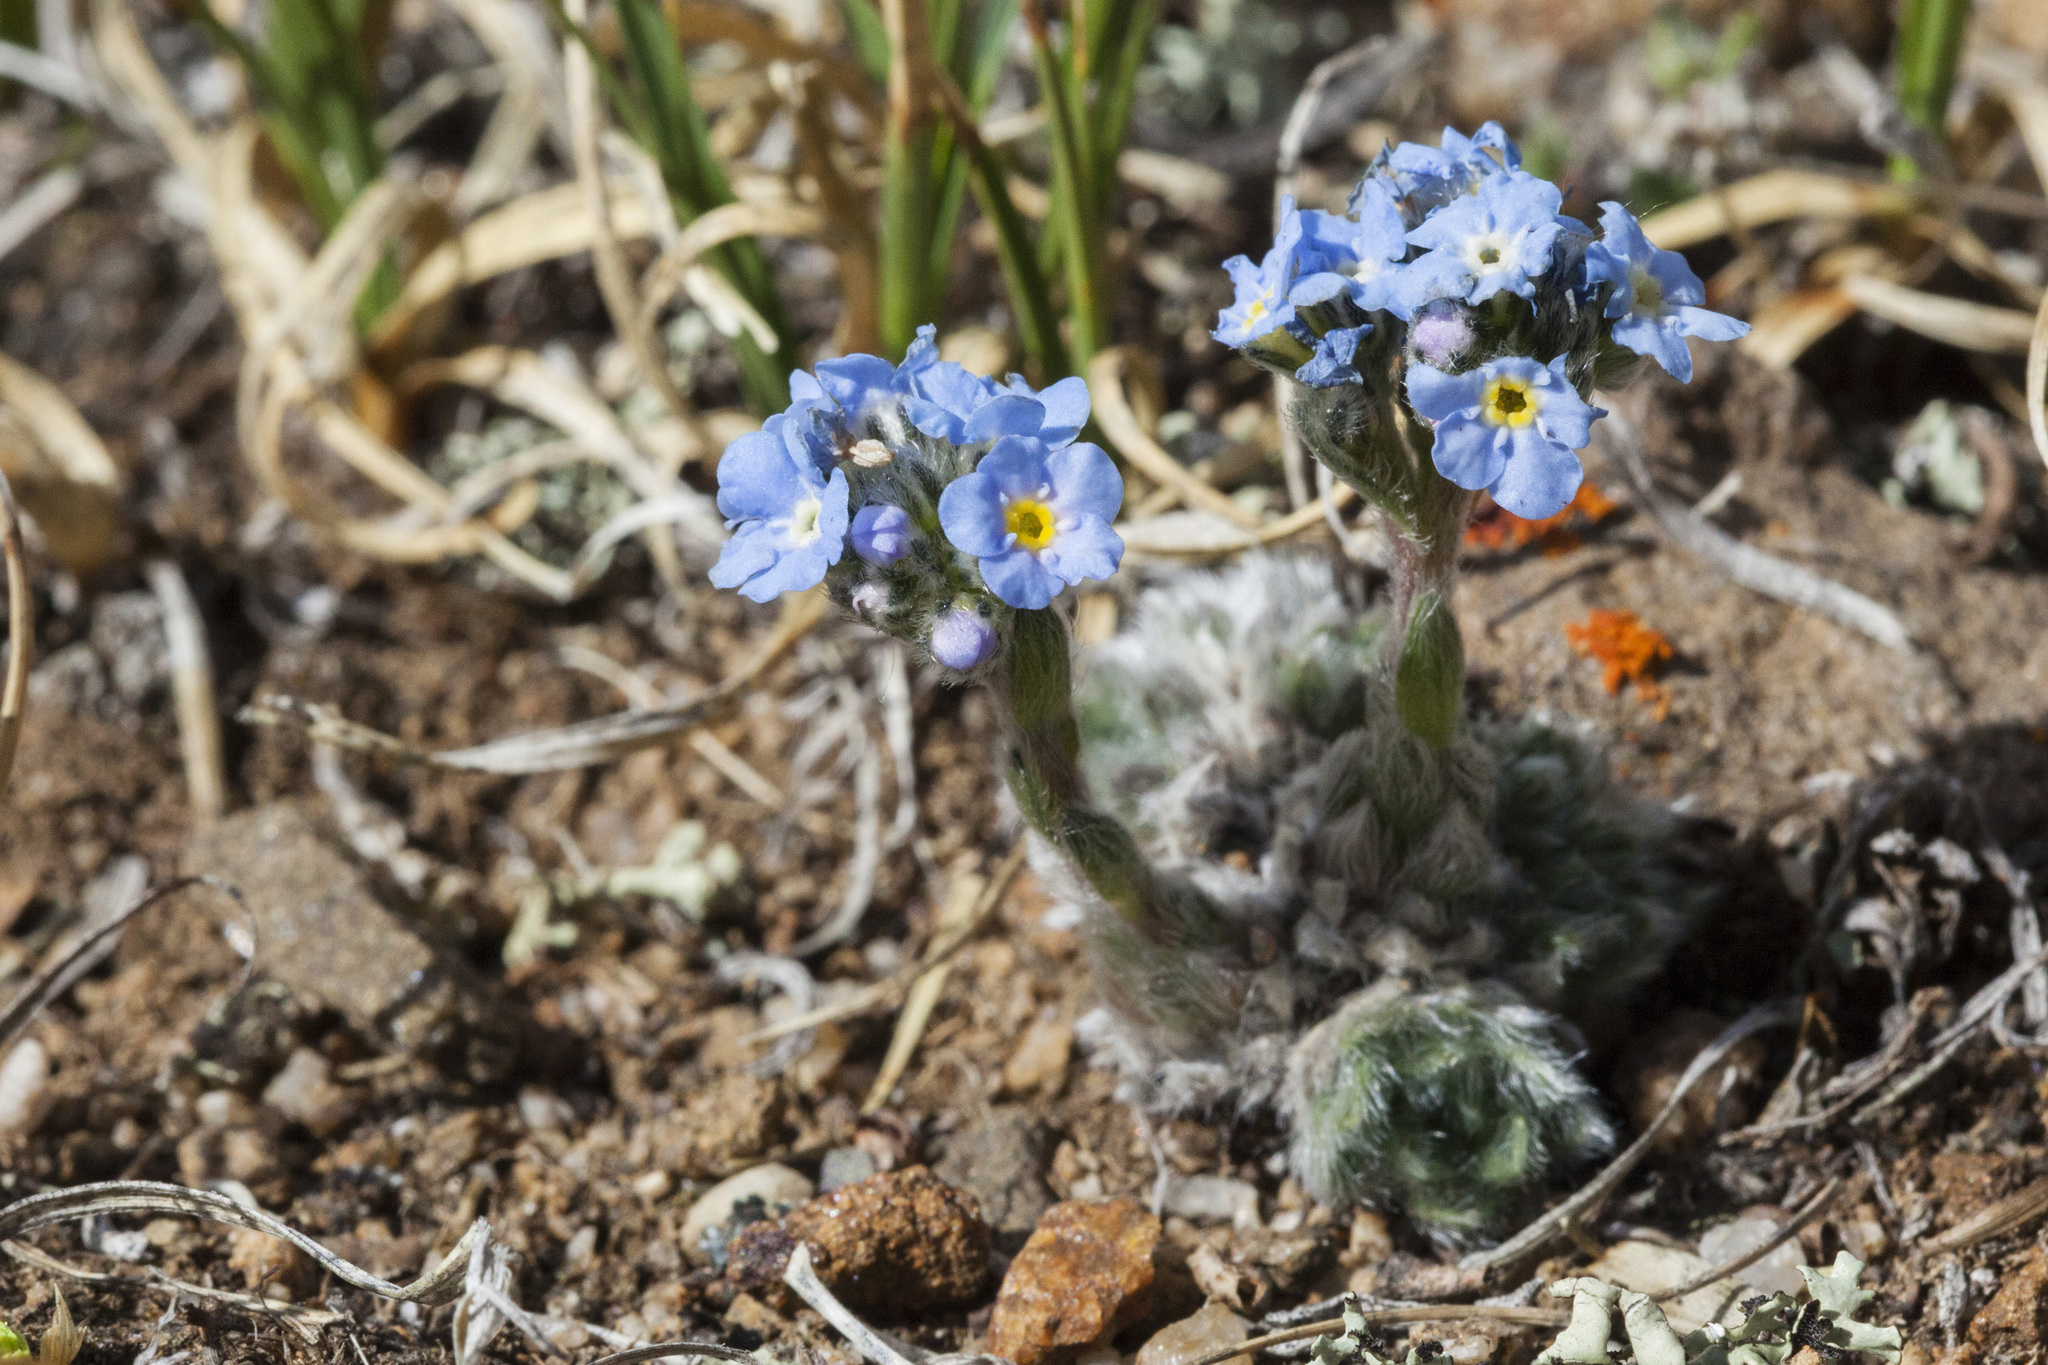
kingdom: Plantae
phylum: Tracheophyta
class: Magnoliopsida
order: Boraginales
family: Boraginaceae
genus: Eritrichium
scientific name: Eritrichium argenteum
